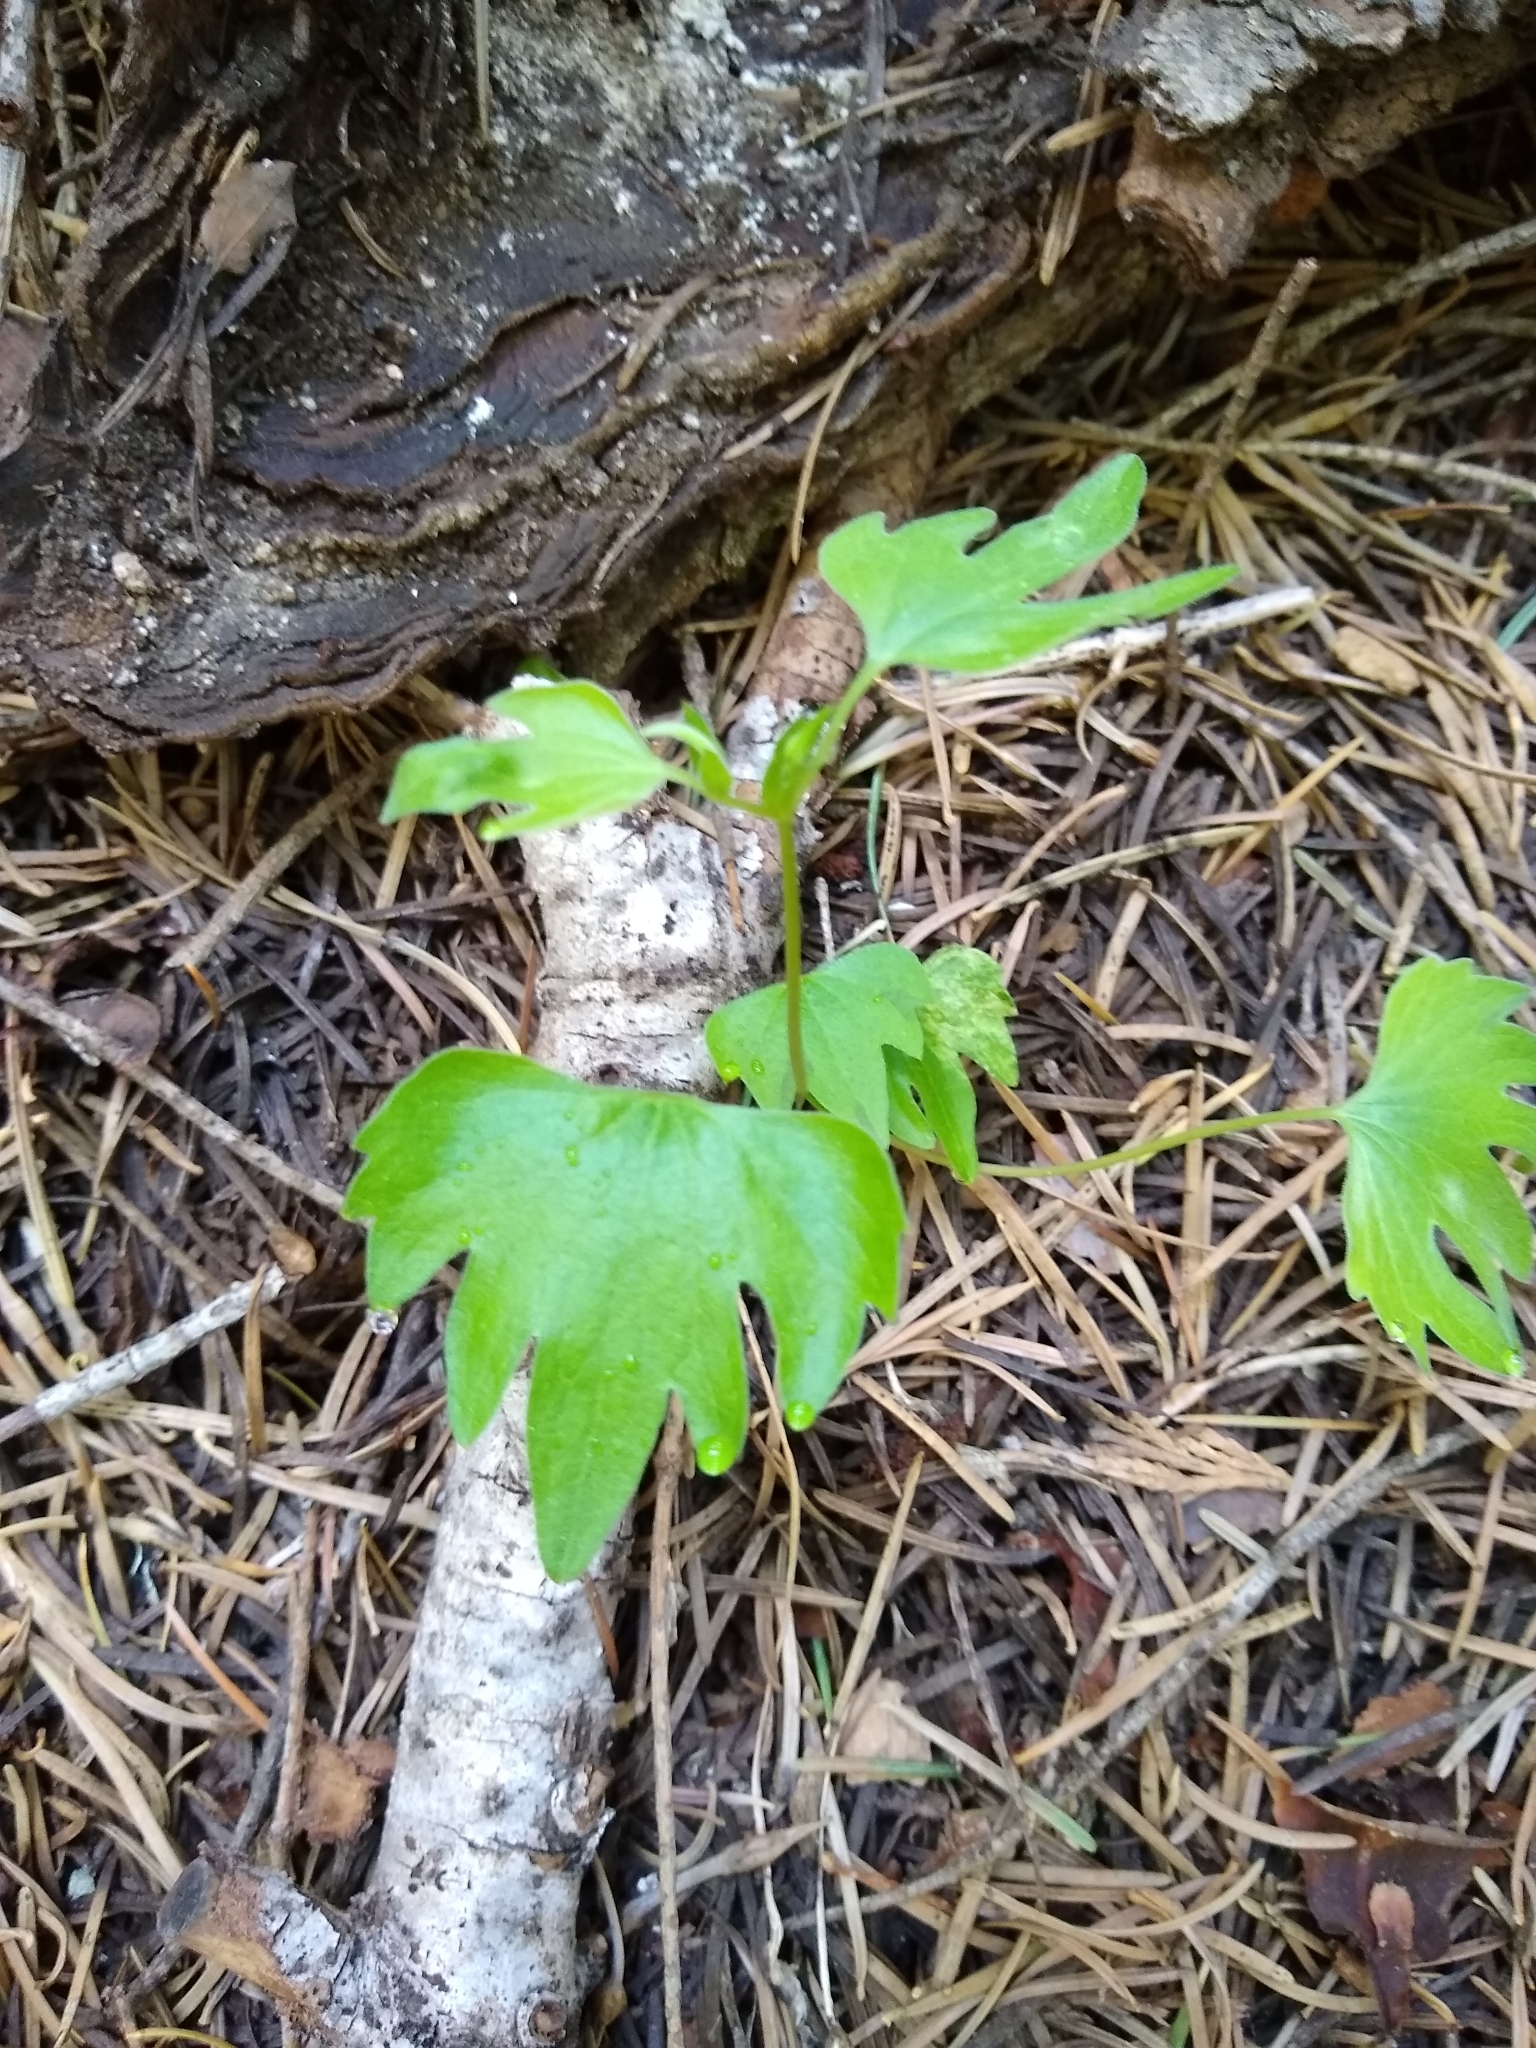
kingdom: Plantae
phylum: Tracheophyta
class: Magnoliopsida
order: Malpighiales
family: Violaceae
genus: Viola
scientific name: Viola lobata
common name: Pine violet
